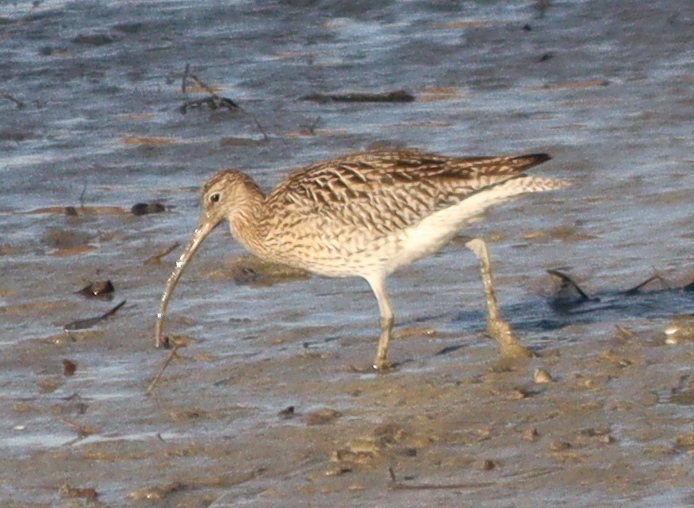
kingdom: Animalia
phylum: Chordata
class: Aves
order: Charadriiformes
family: Scolopacidae
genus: Numenius
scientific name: Numenius arquata
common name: Eurasian curlew
